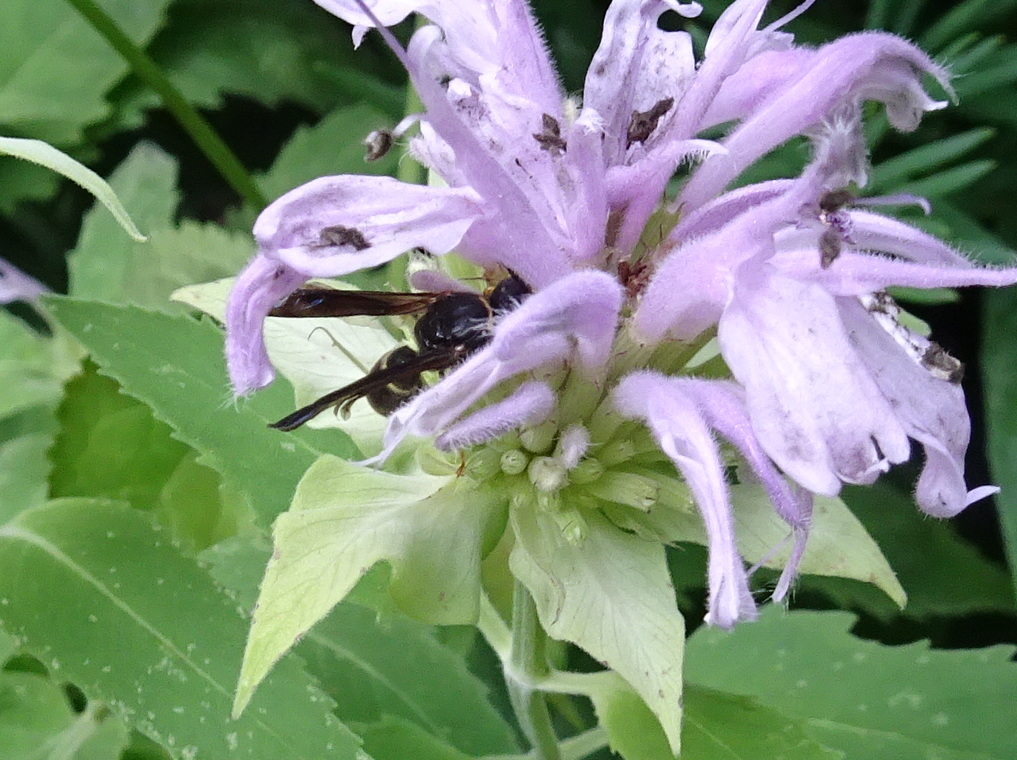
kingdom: Animalia
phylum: Arthropoda
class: Insecta
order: Hymenoptera
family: Eumenidae
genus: Parazumia
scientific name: Parazumia symmorpha
